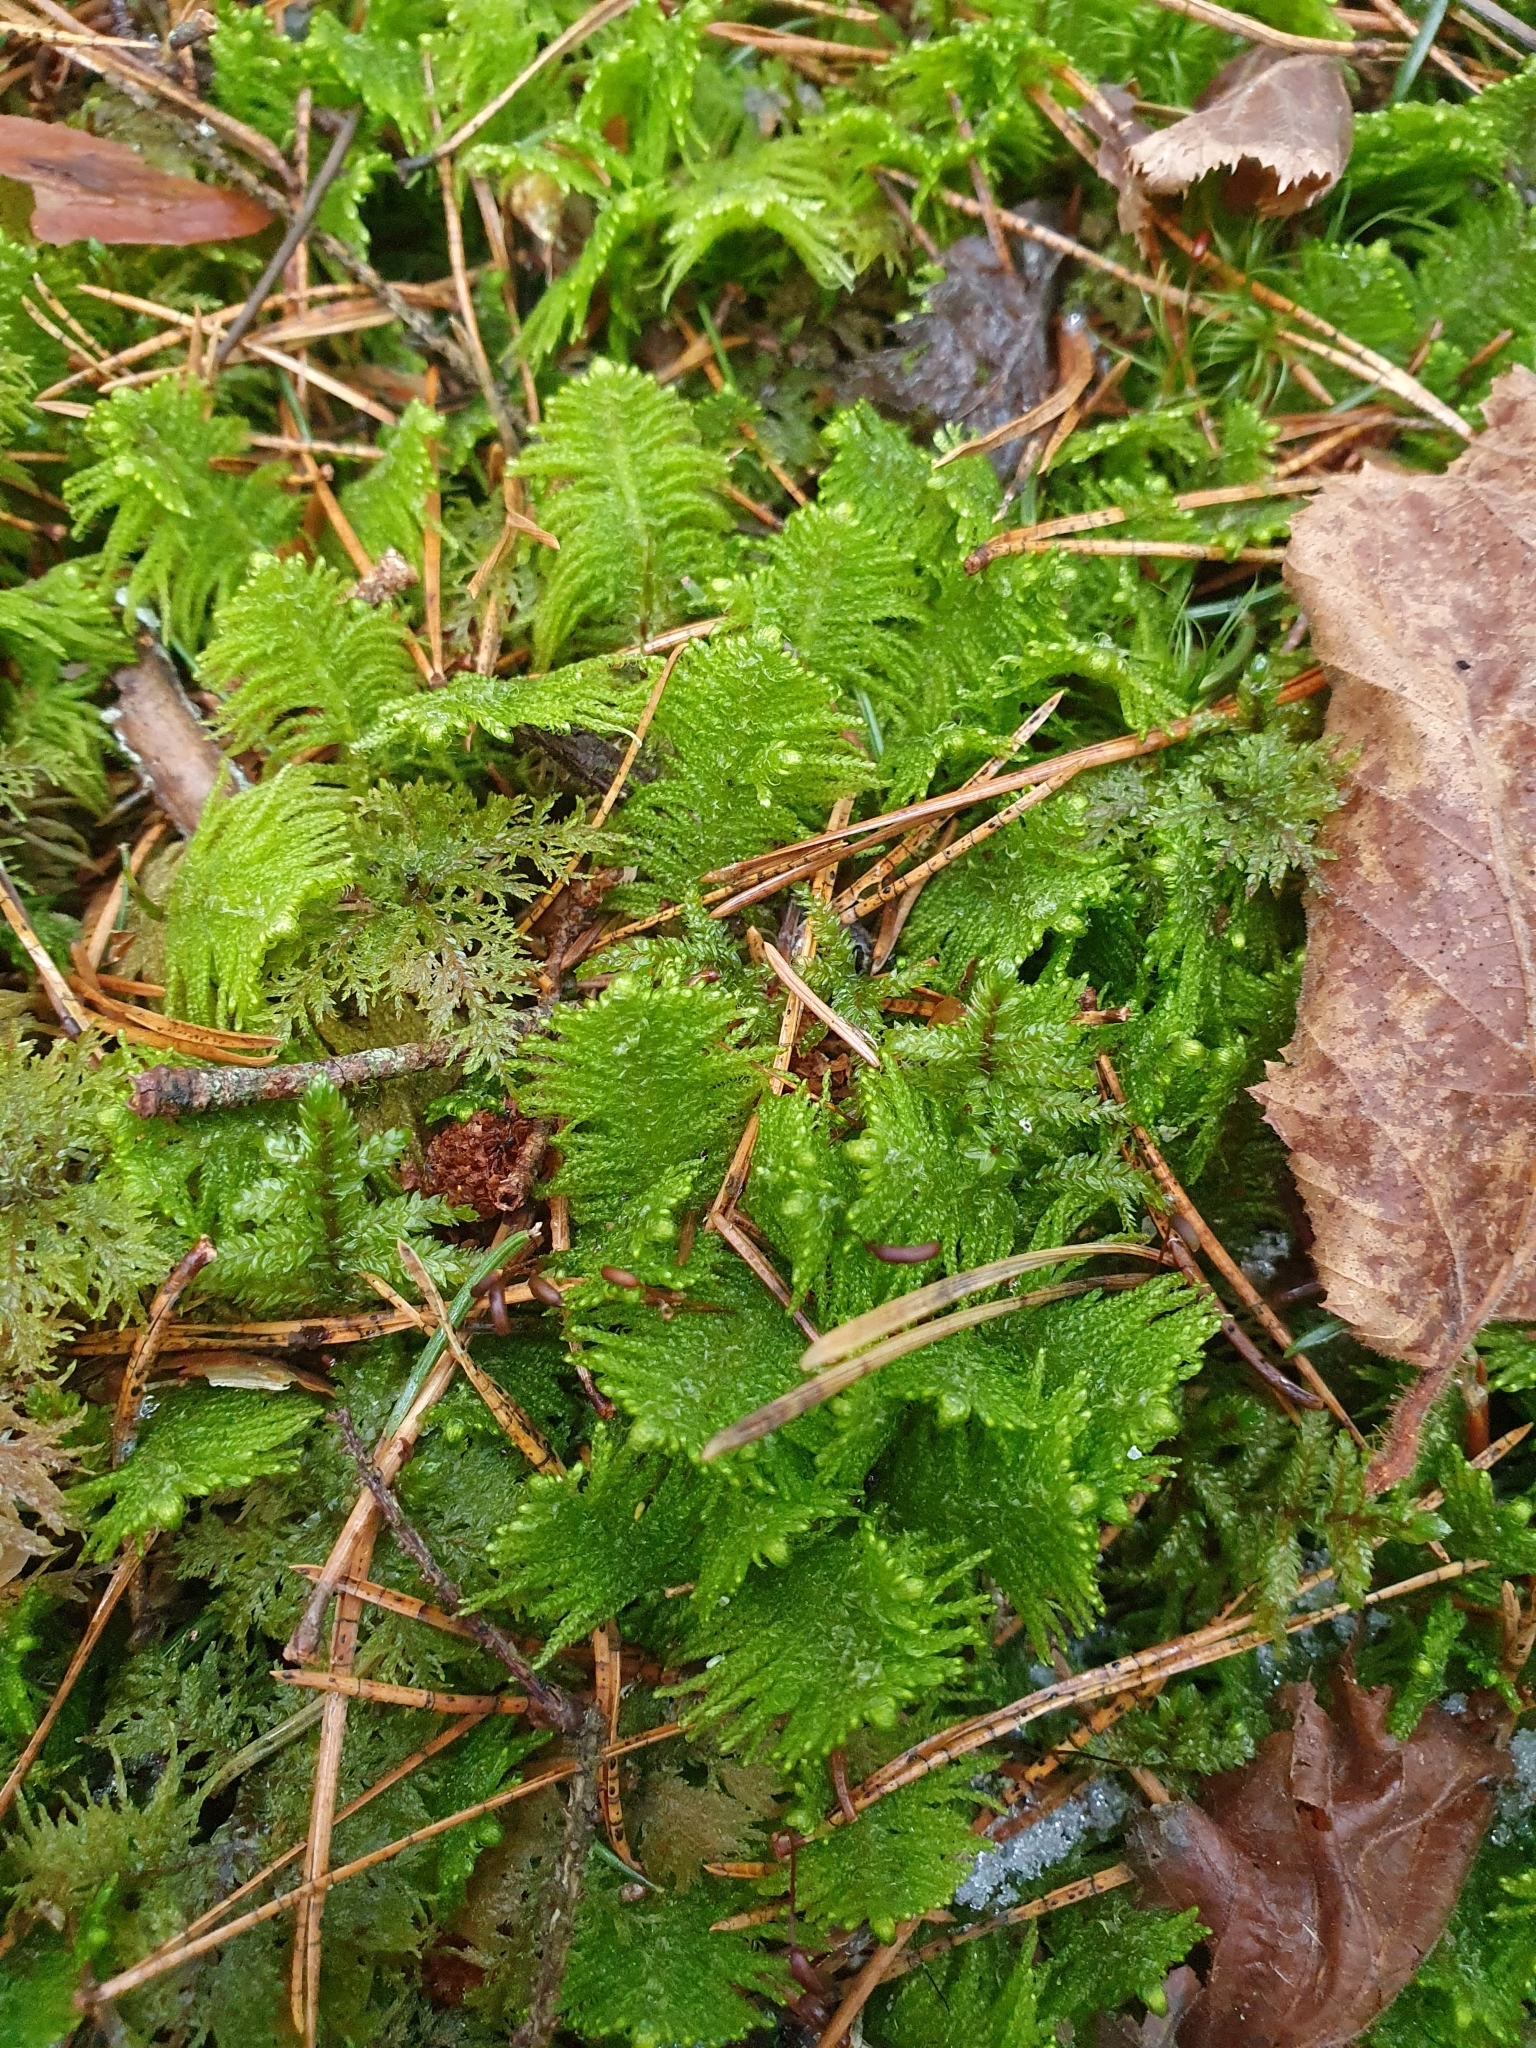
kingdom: Plantae
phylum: Bryophyta
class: Bryopsida
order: Hypnales
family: Pylaisiaceae
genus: Ptilium
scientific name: Ptilium crista-castrensis
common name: Knight's plume moss
